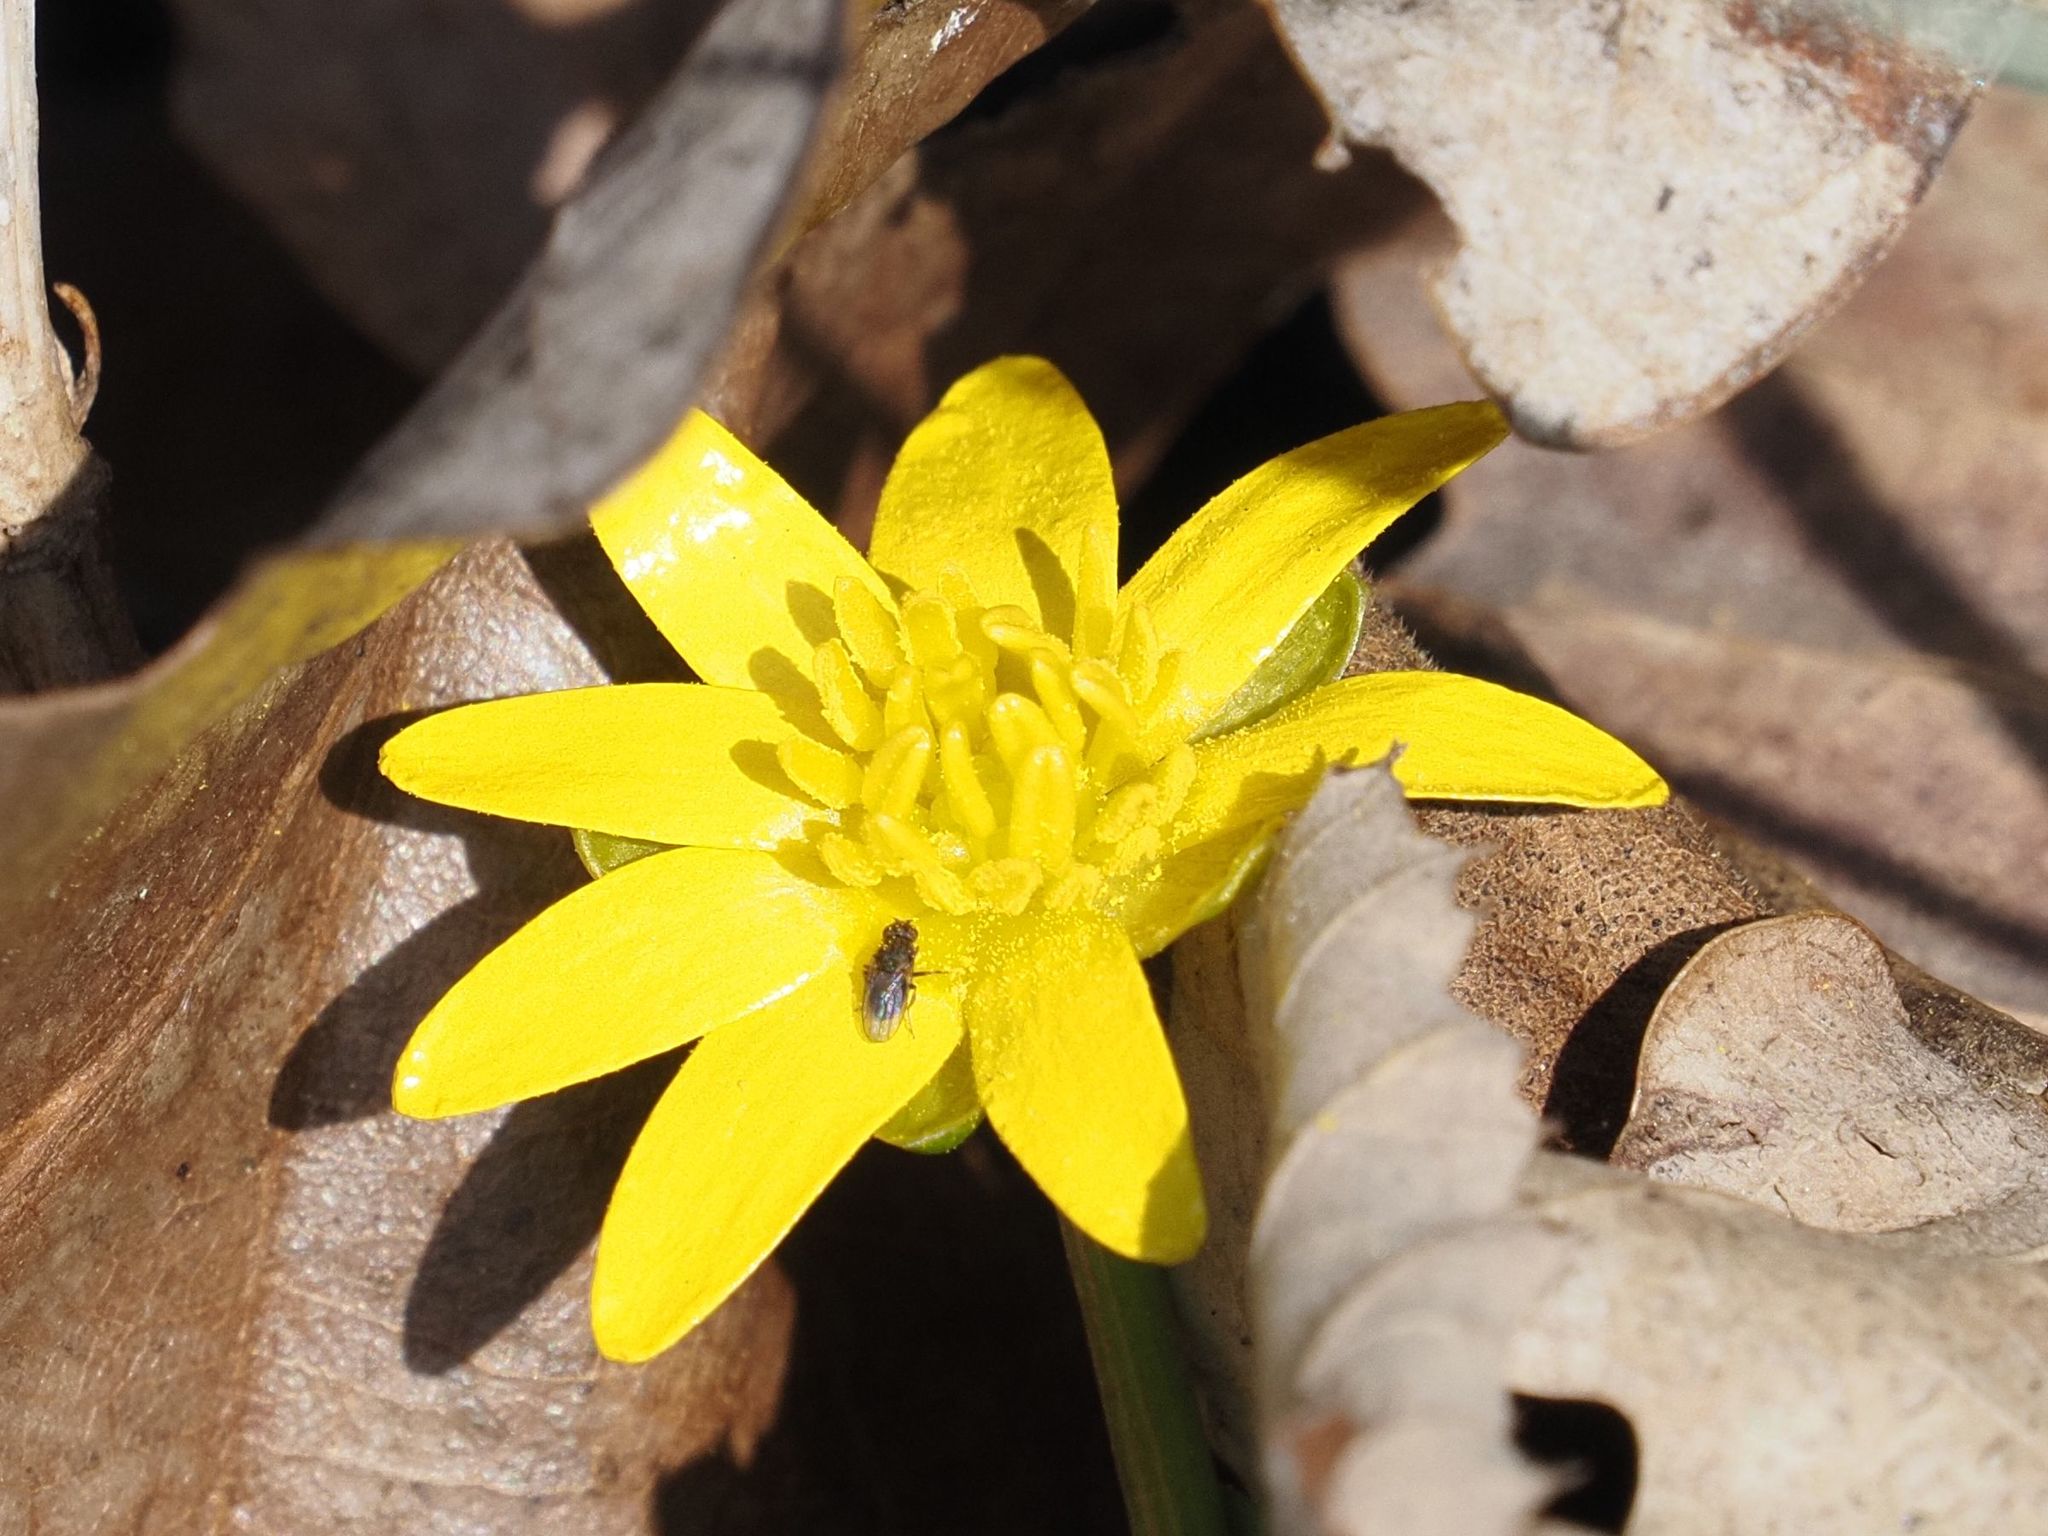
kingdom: Plantae
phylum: Tracheophyta
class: Magnoliopsida
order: Ranunculales
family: Ranunculaceae
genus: Ficaria
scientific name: Ficaria verna
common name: Lesser celandine
